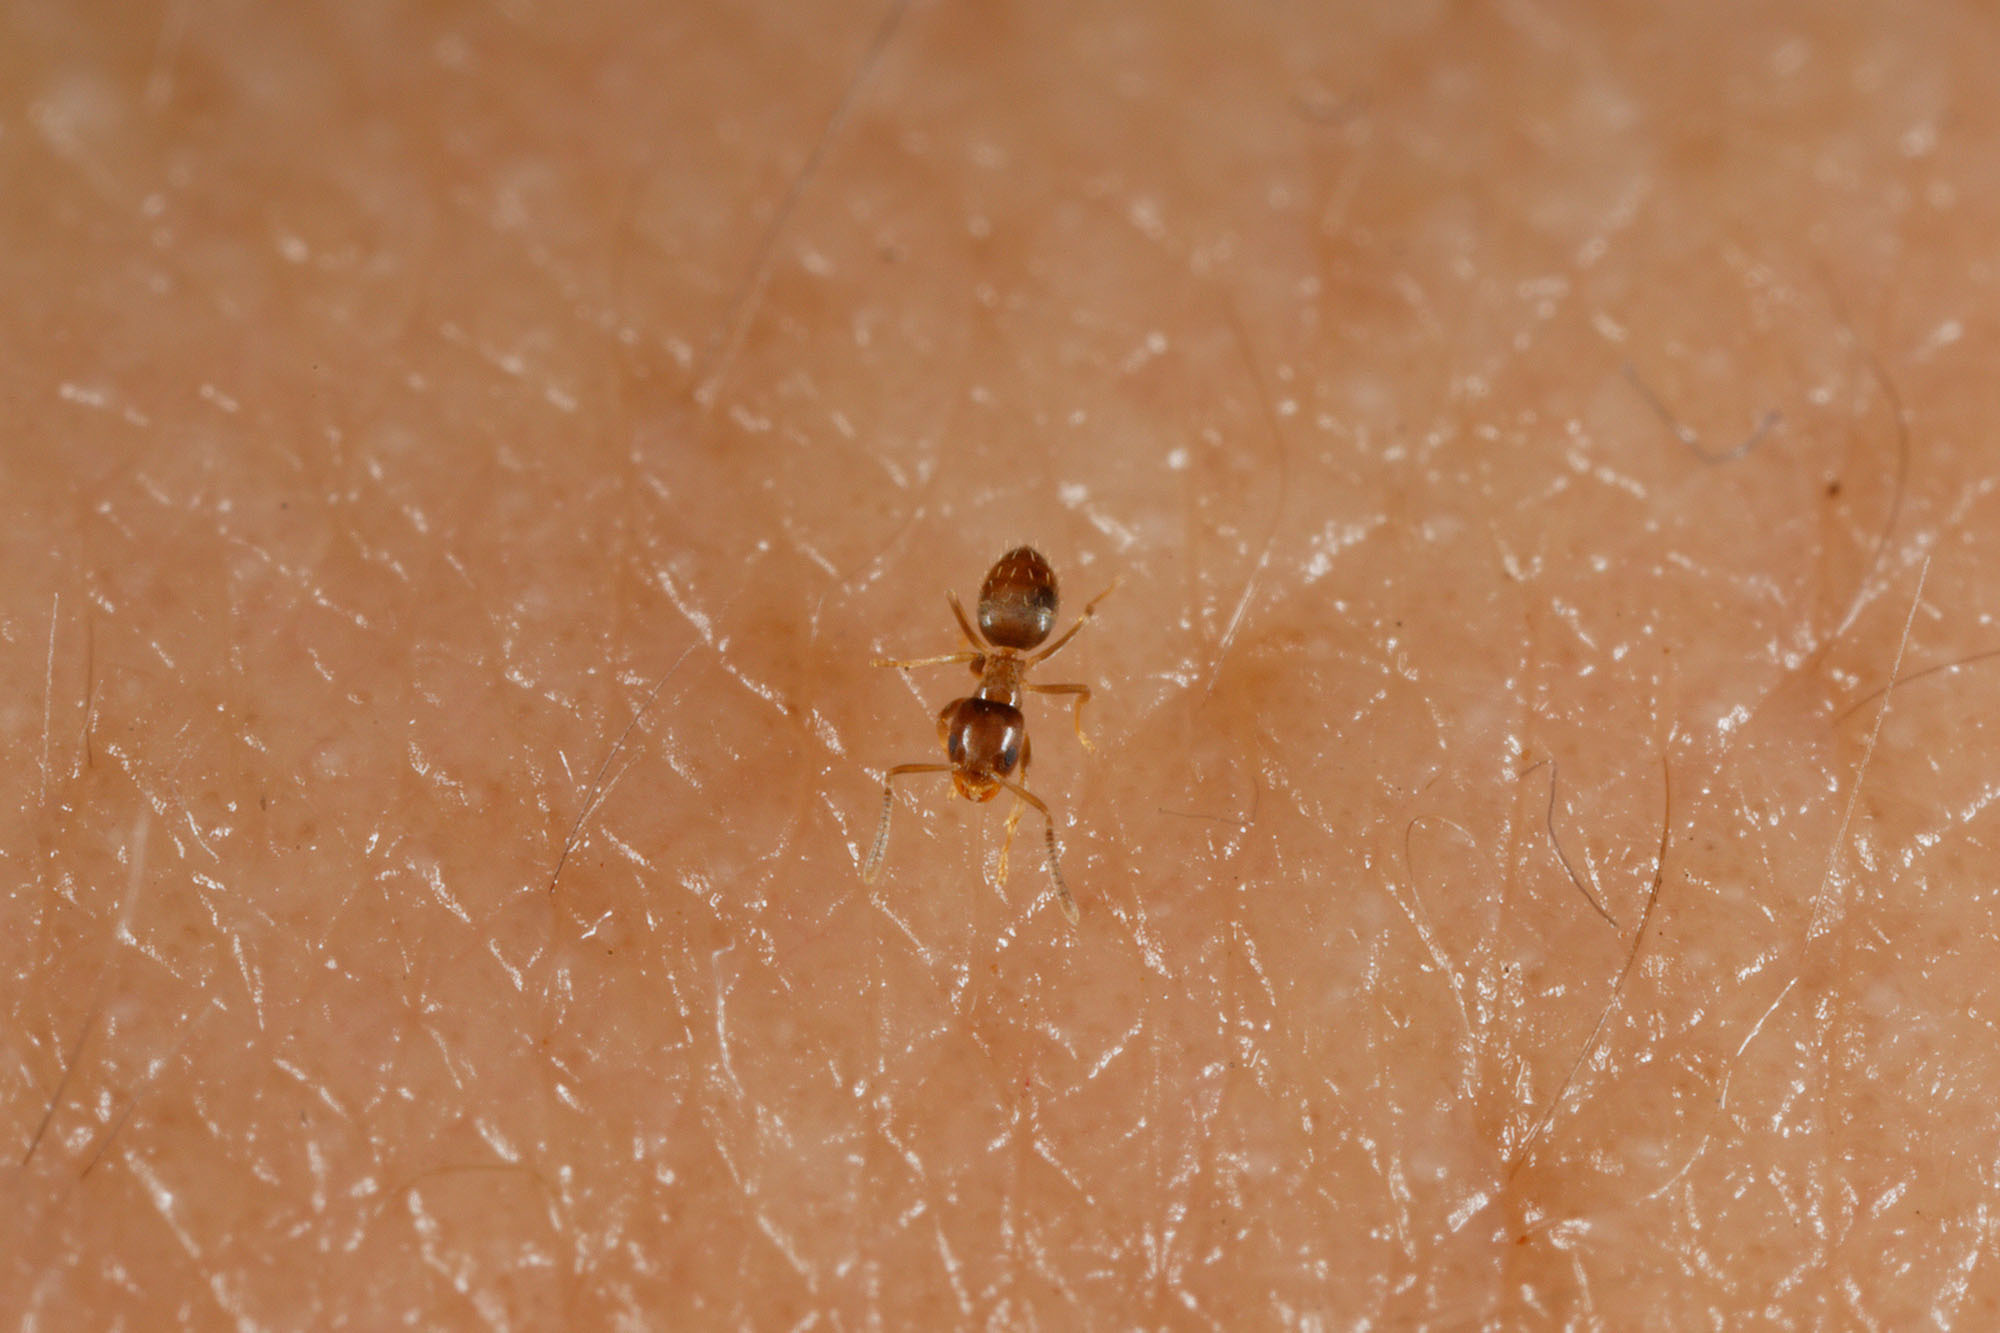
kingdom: Animalia
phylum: Arthropoda
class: Insecta
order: Hymenoptera
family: Formicidae
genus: Plagiolepis
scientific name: Plagiolepis lucidula
